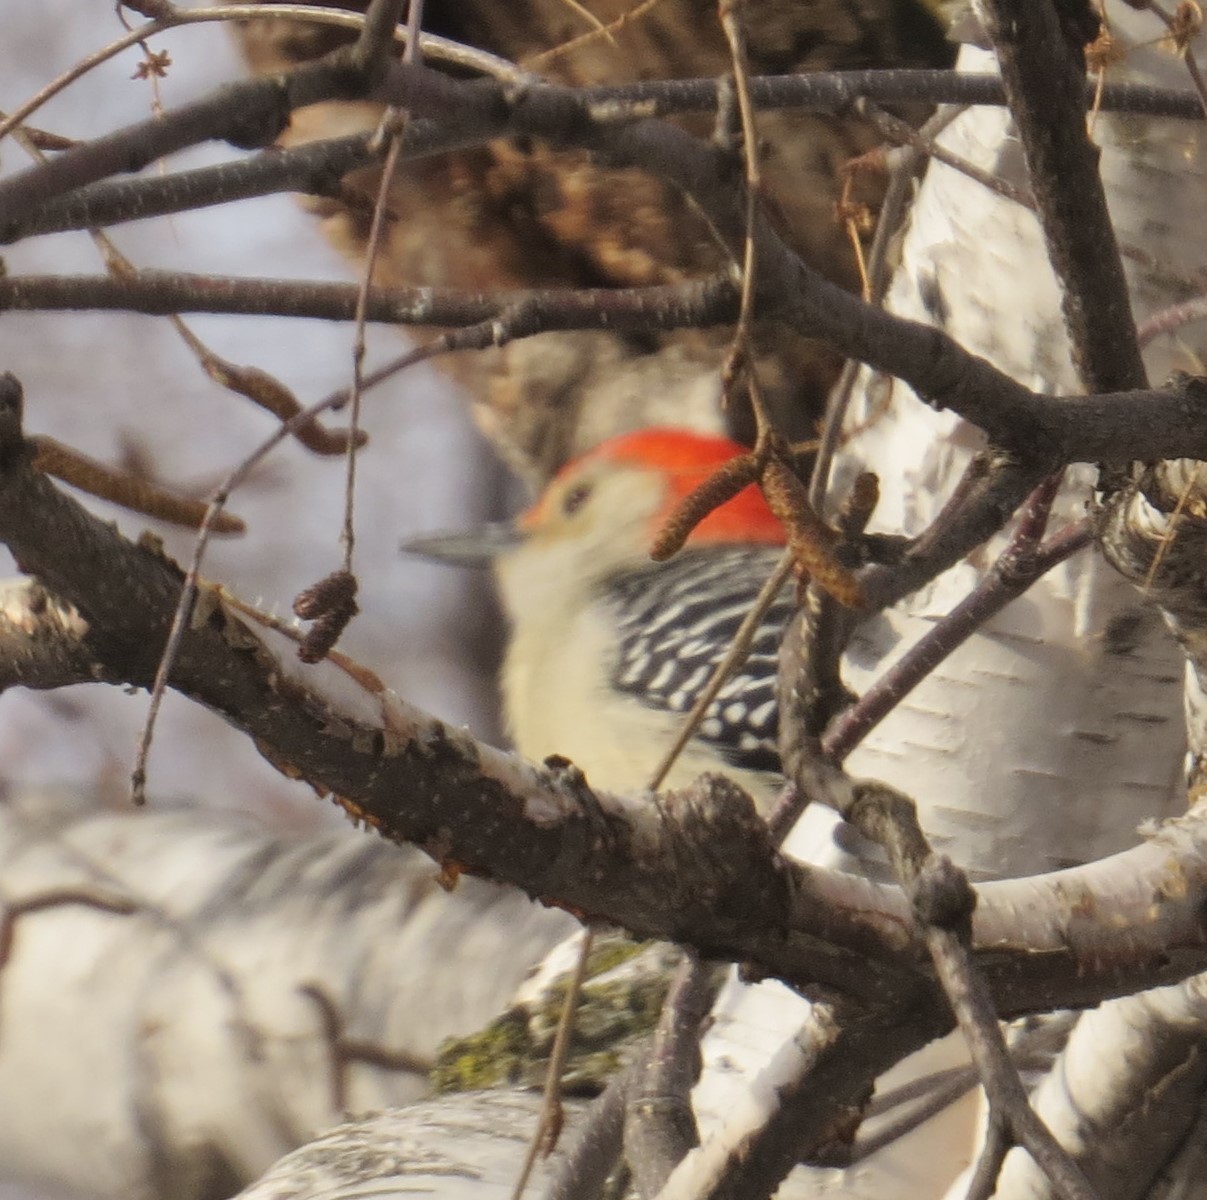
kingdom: Animalia
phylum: Chordata
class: Aves
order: Piciformes
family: Picidae
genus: Melanerpes
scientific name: Melanerpes carolinus
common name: Red-bellied woodpecker
